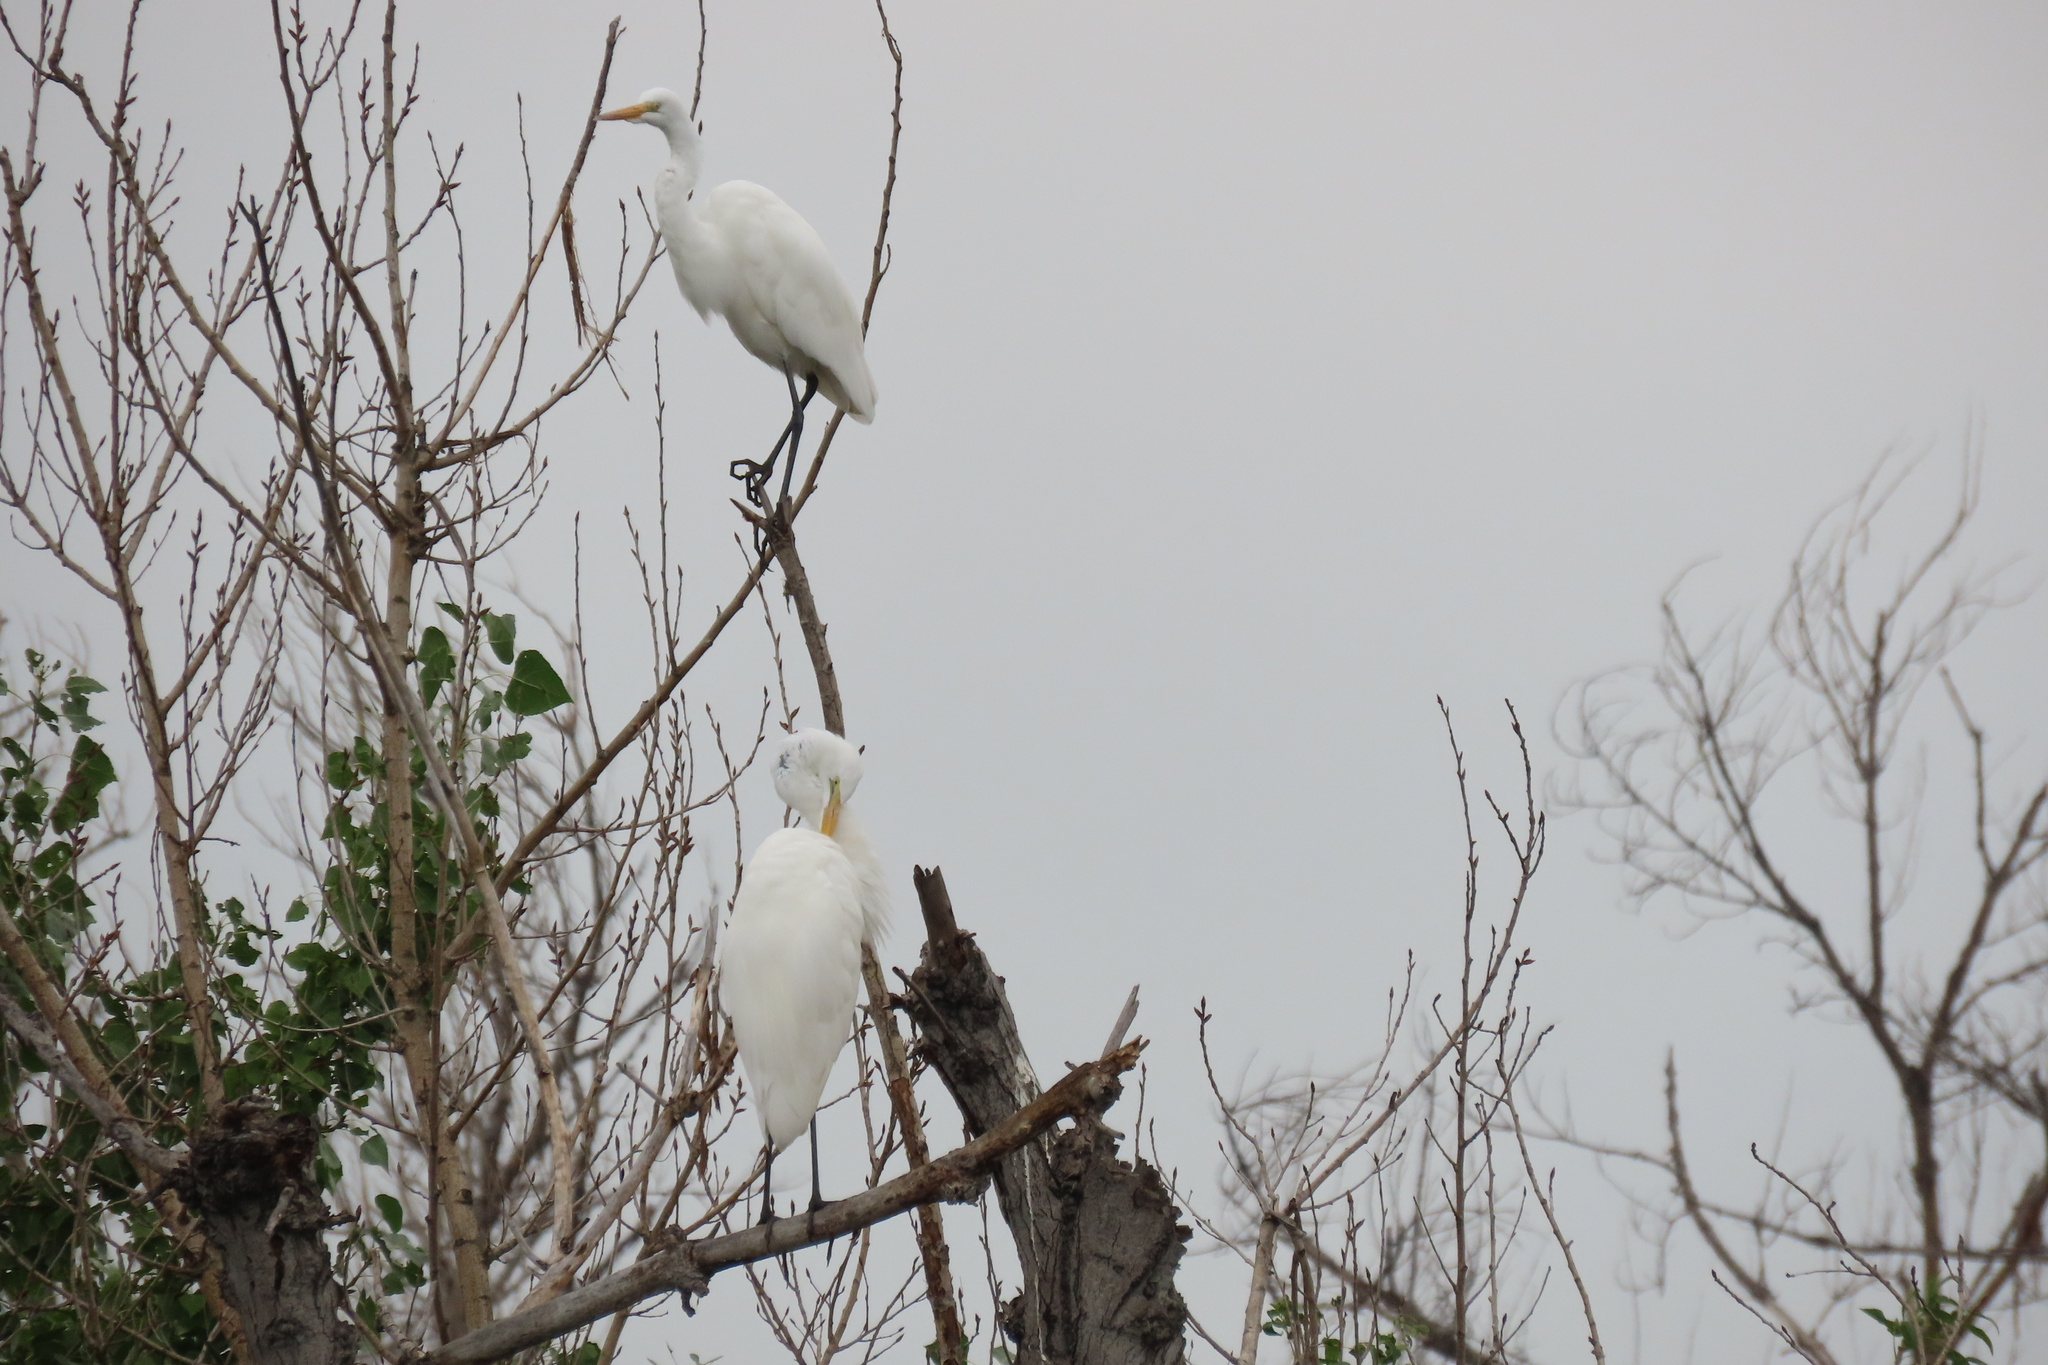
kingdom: Animalia
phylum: Chordata
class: Aves
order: Pelecaniformes
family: Ardeidae
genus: Ardea
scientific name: Ardea alba
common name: Great egret
